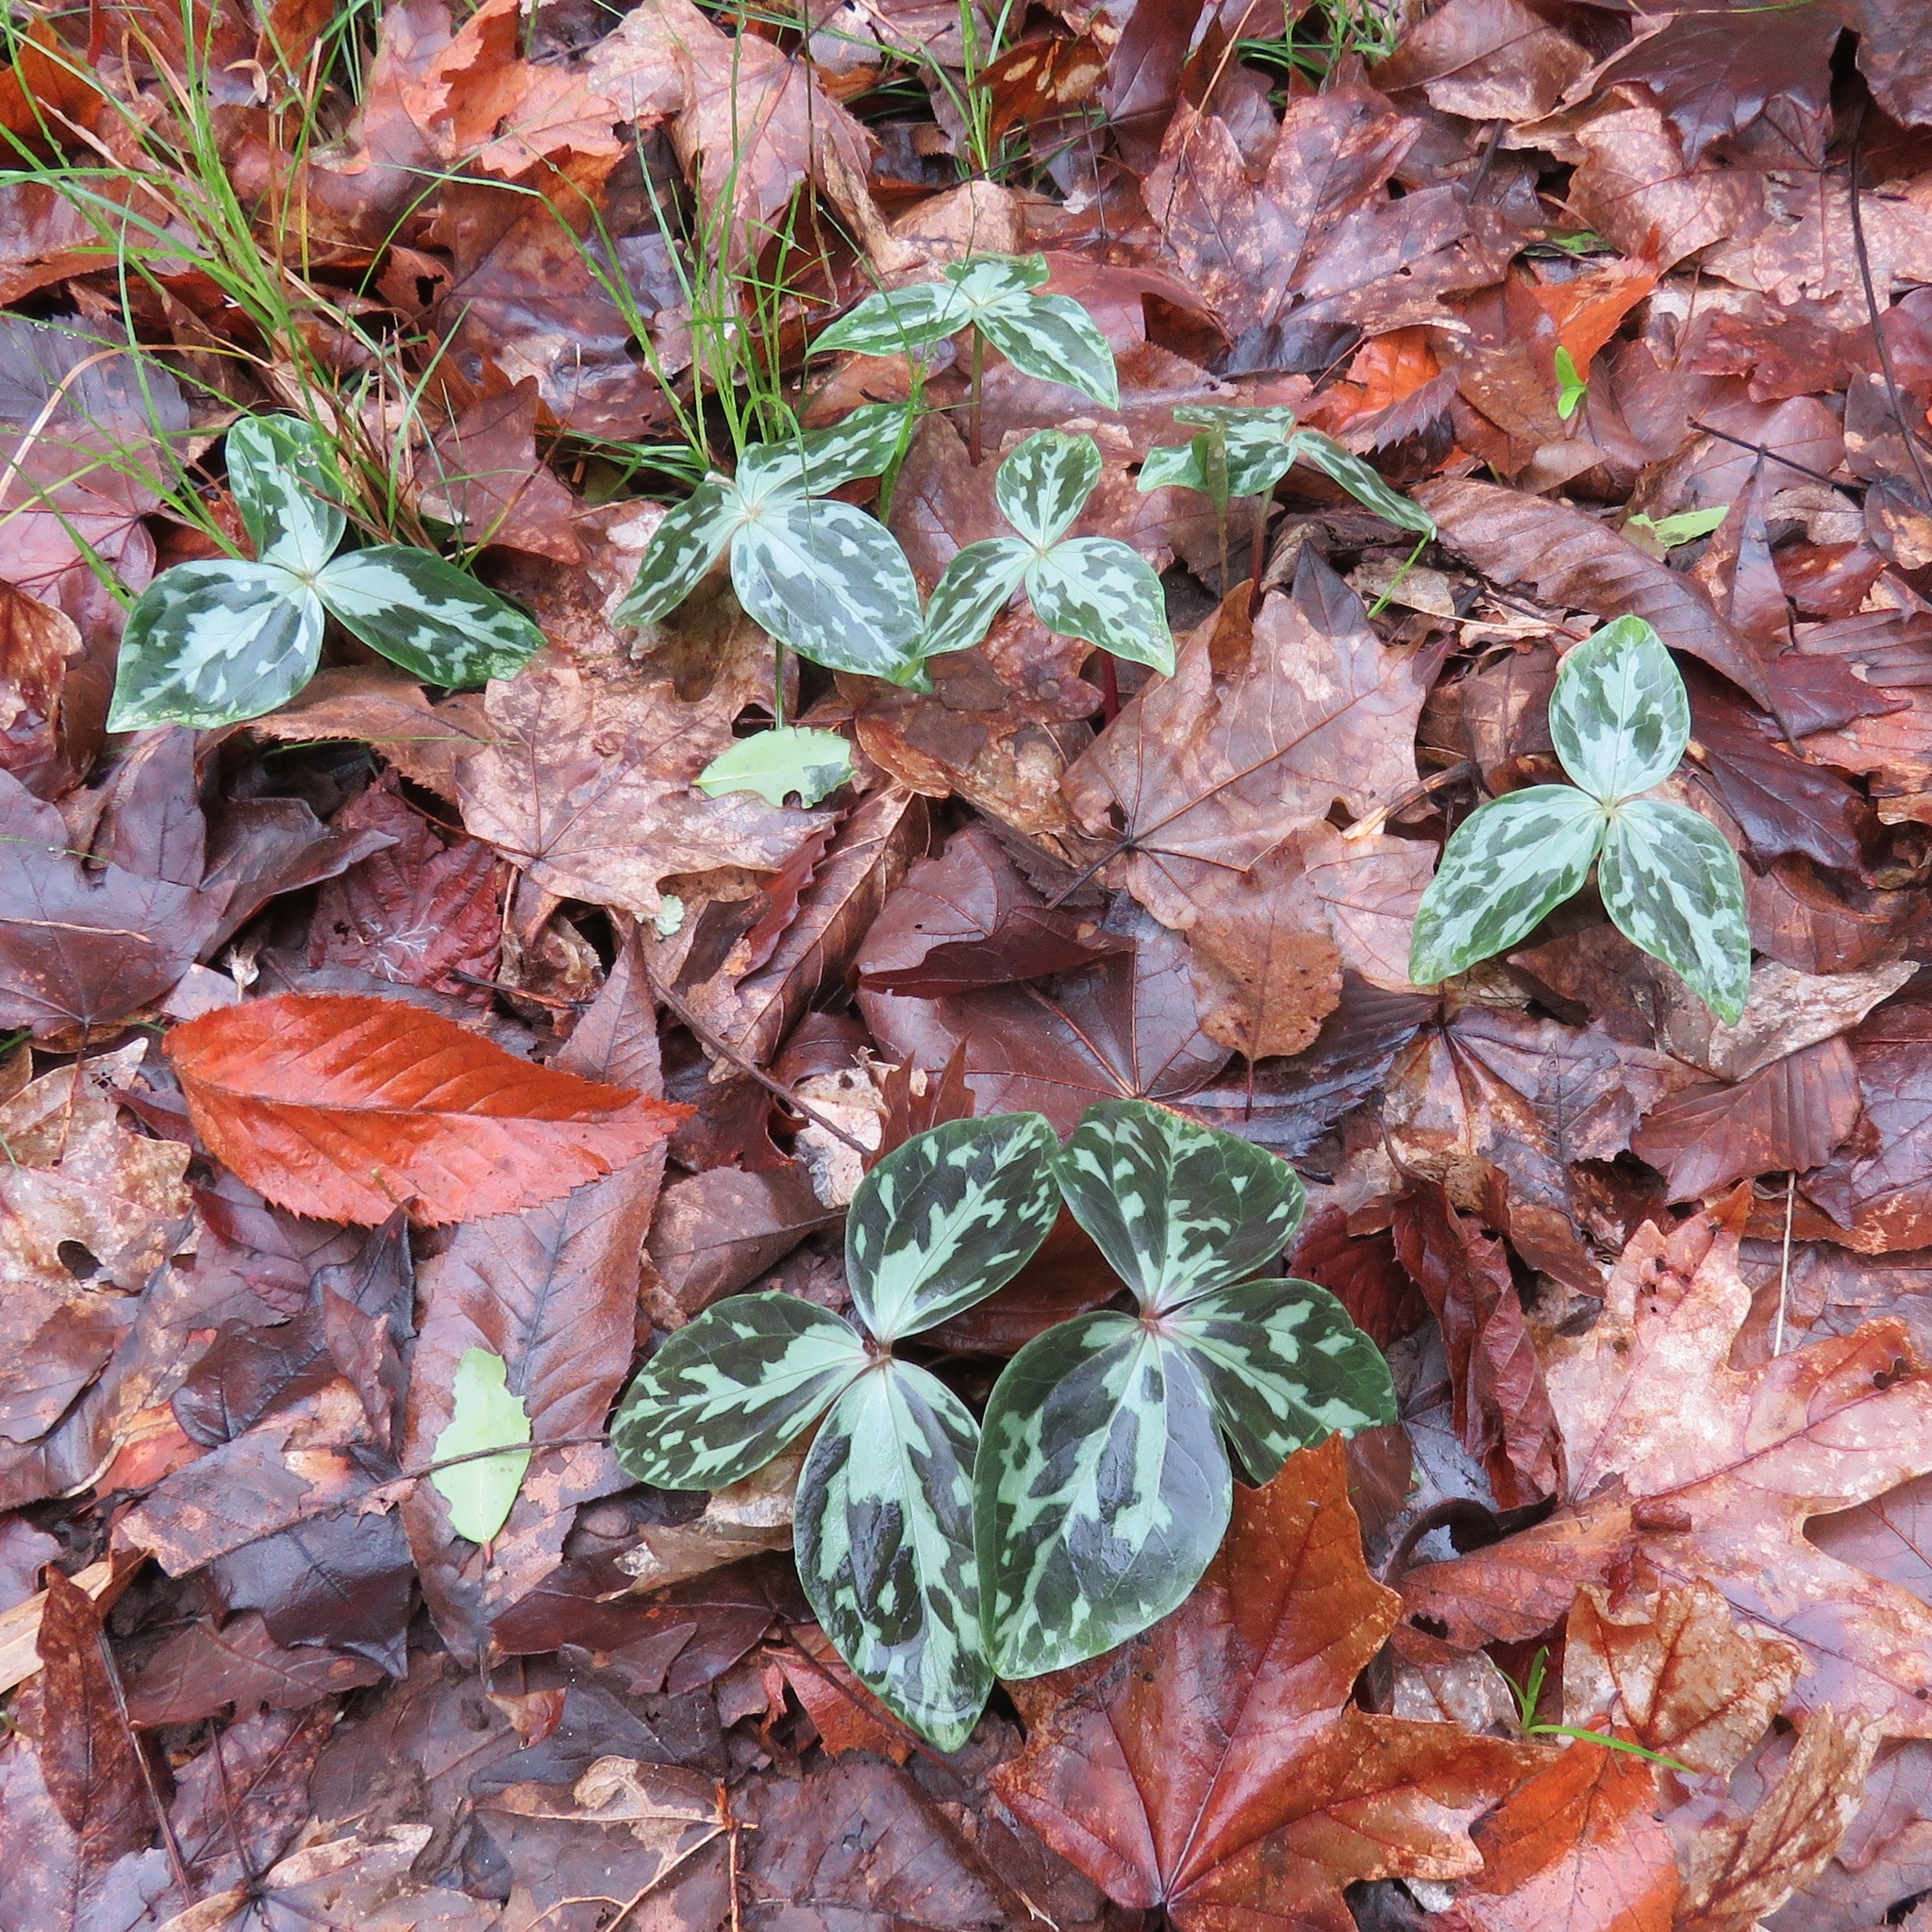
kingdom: Plantae
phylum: Tracheophyta
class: Liliopsida
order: Liliales
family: Melanthiaceae
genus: Trillium
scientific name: Trillium gracile
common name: Graceful trillium
